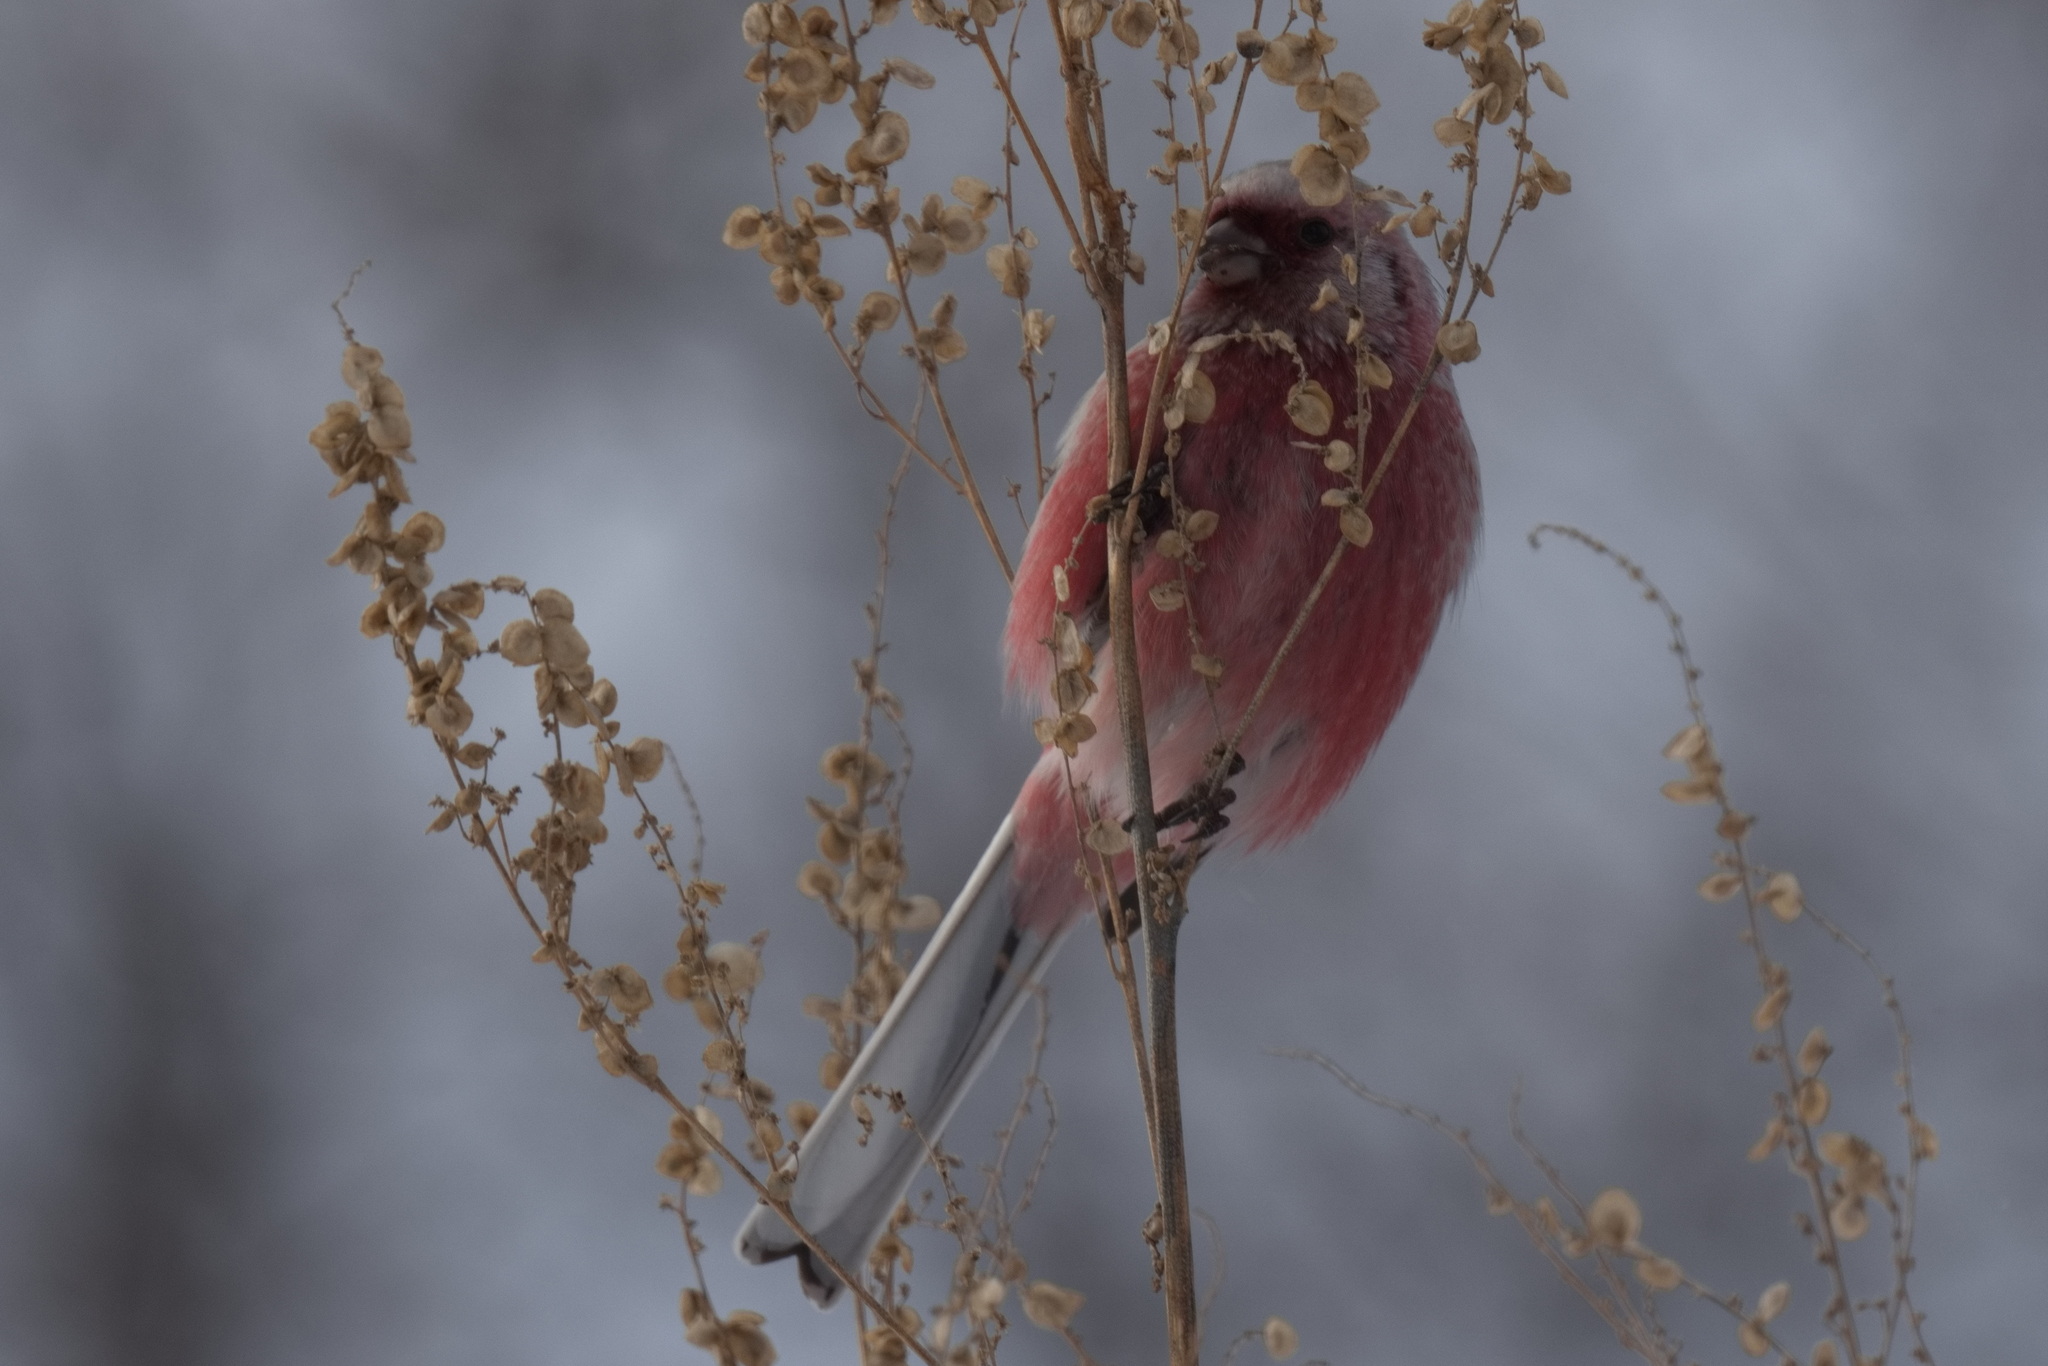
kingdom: Animalia
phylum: Chordata
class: Aves
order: Passeriformes
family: Fringillidae
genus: Carpodacus
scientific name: Carpodacus sibiricus
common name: Long-tailed rosefinch
